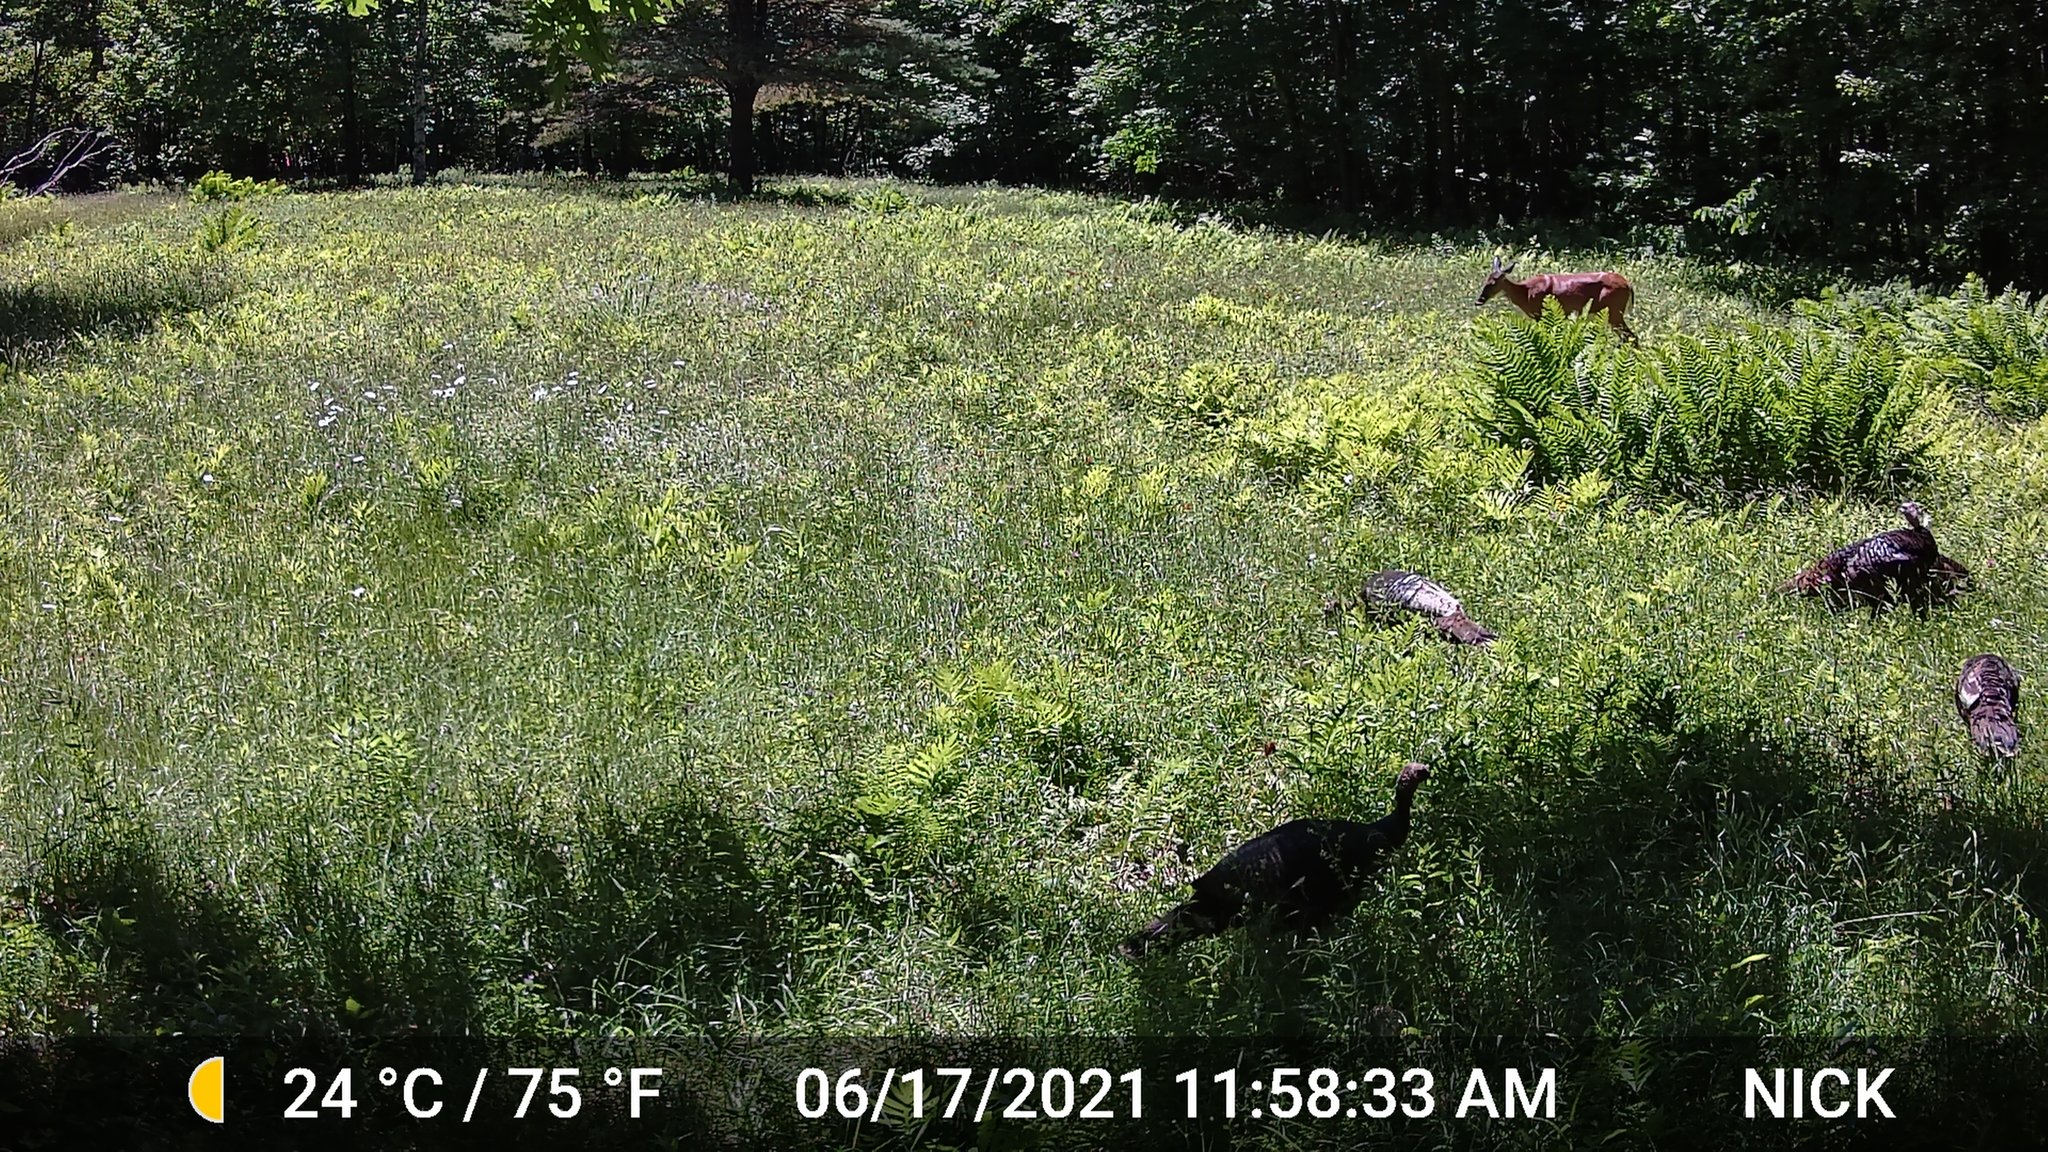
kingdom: Animalia
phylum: Chordata
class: Mammalia
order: Artiodactyla
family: Cervidae
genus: Odocoileus
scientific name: Odocoileus virginianus
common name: White-tailed deer
